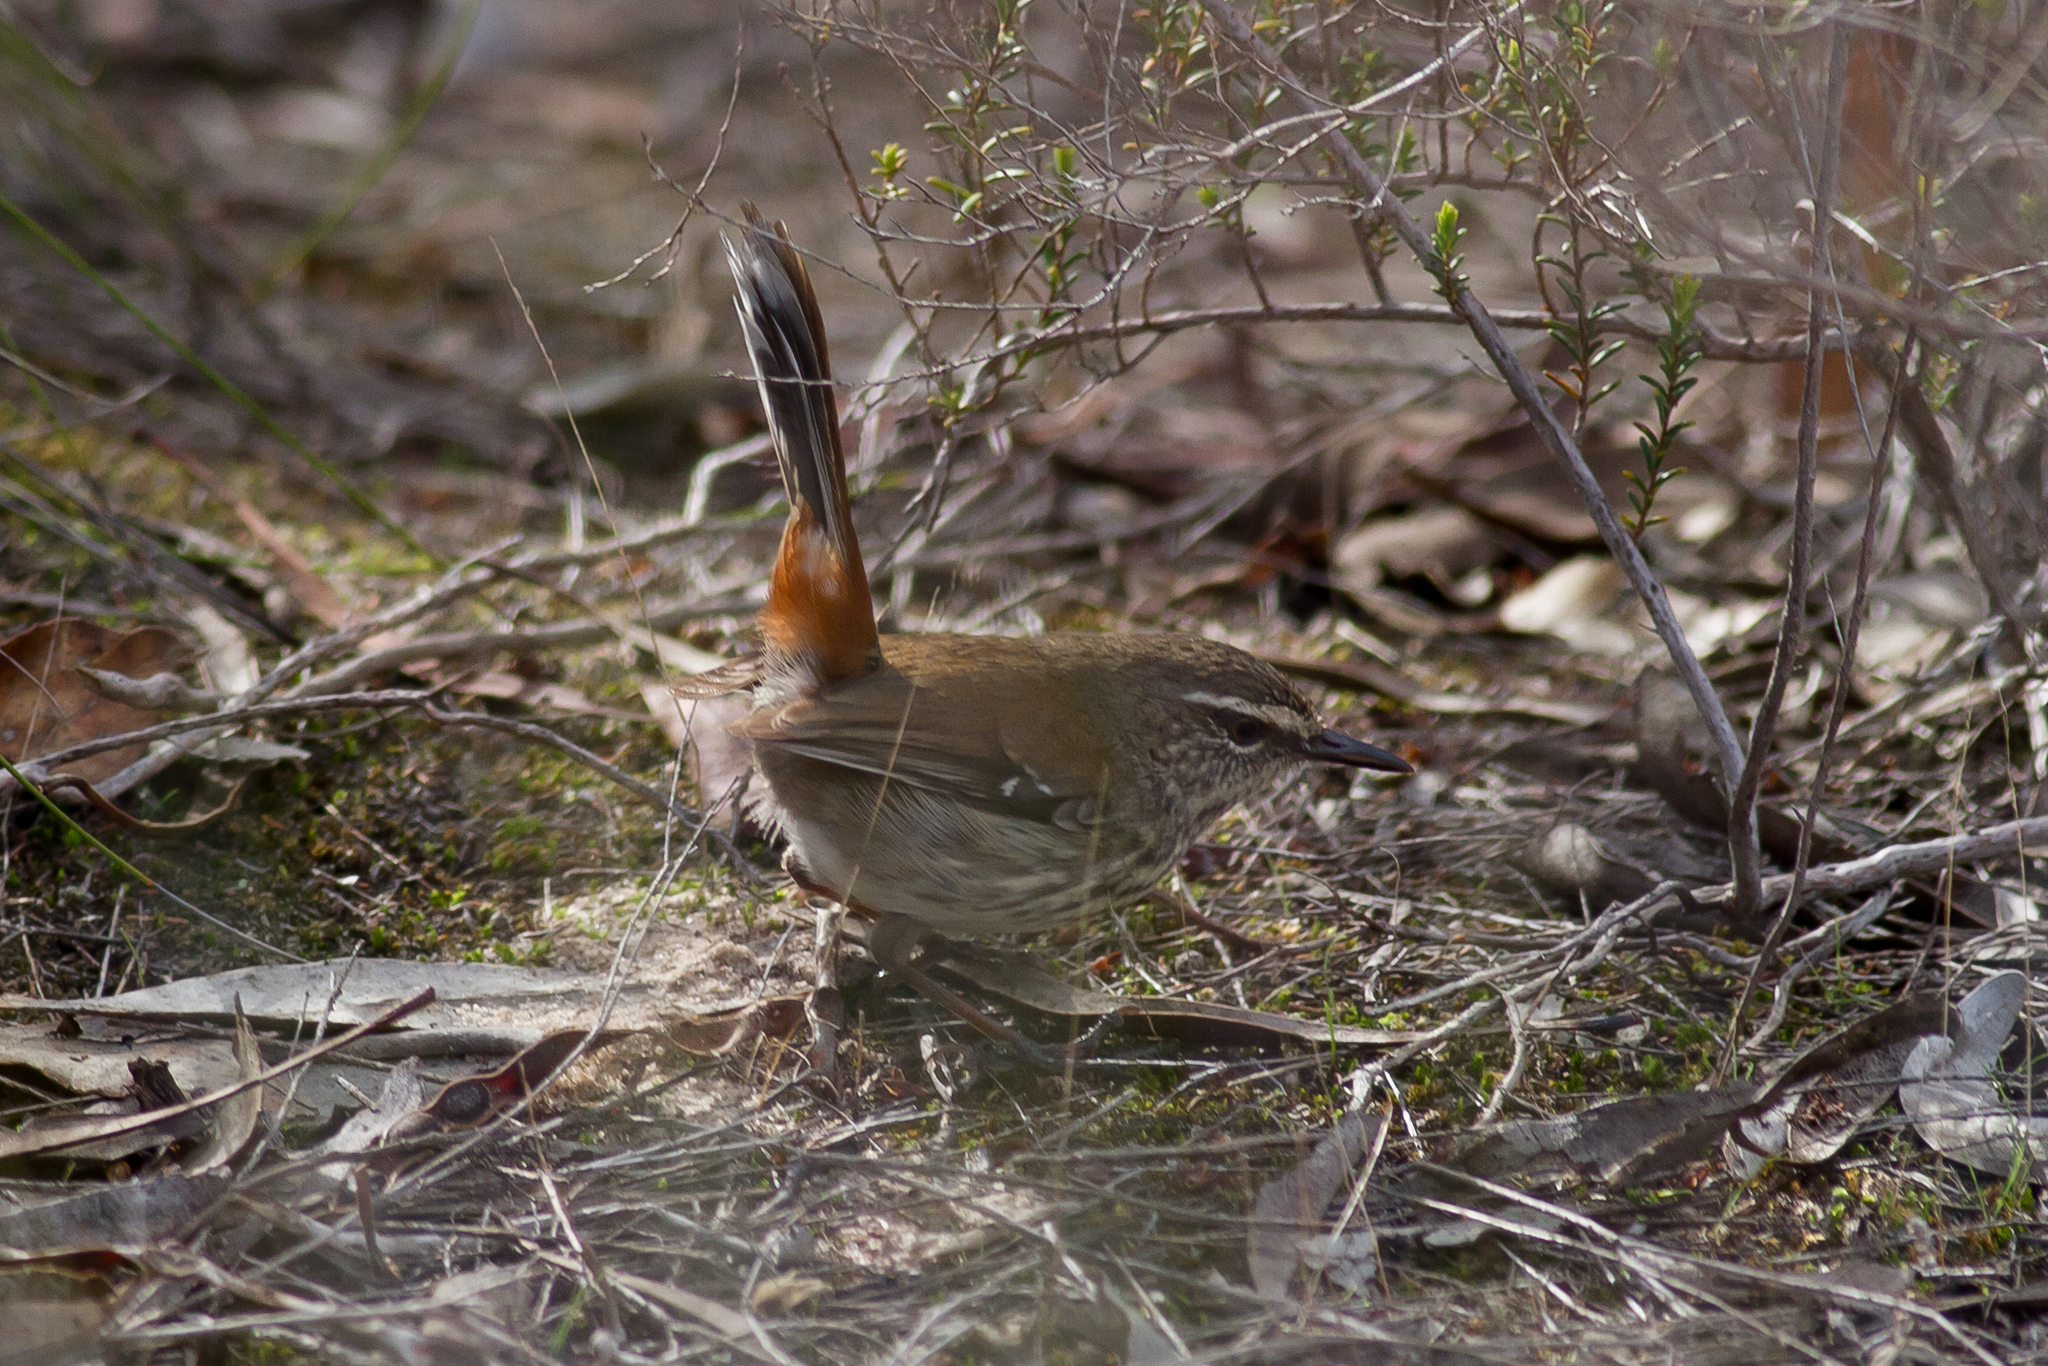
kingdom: Animalia
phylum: Chordata
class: Aves
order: Passeriformes
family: Acanthizidae
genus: Calamanthus
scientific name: Calamanthus cautus
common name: Shy heathwren
